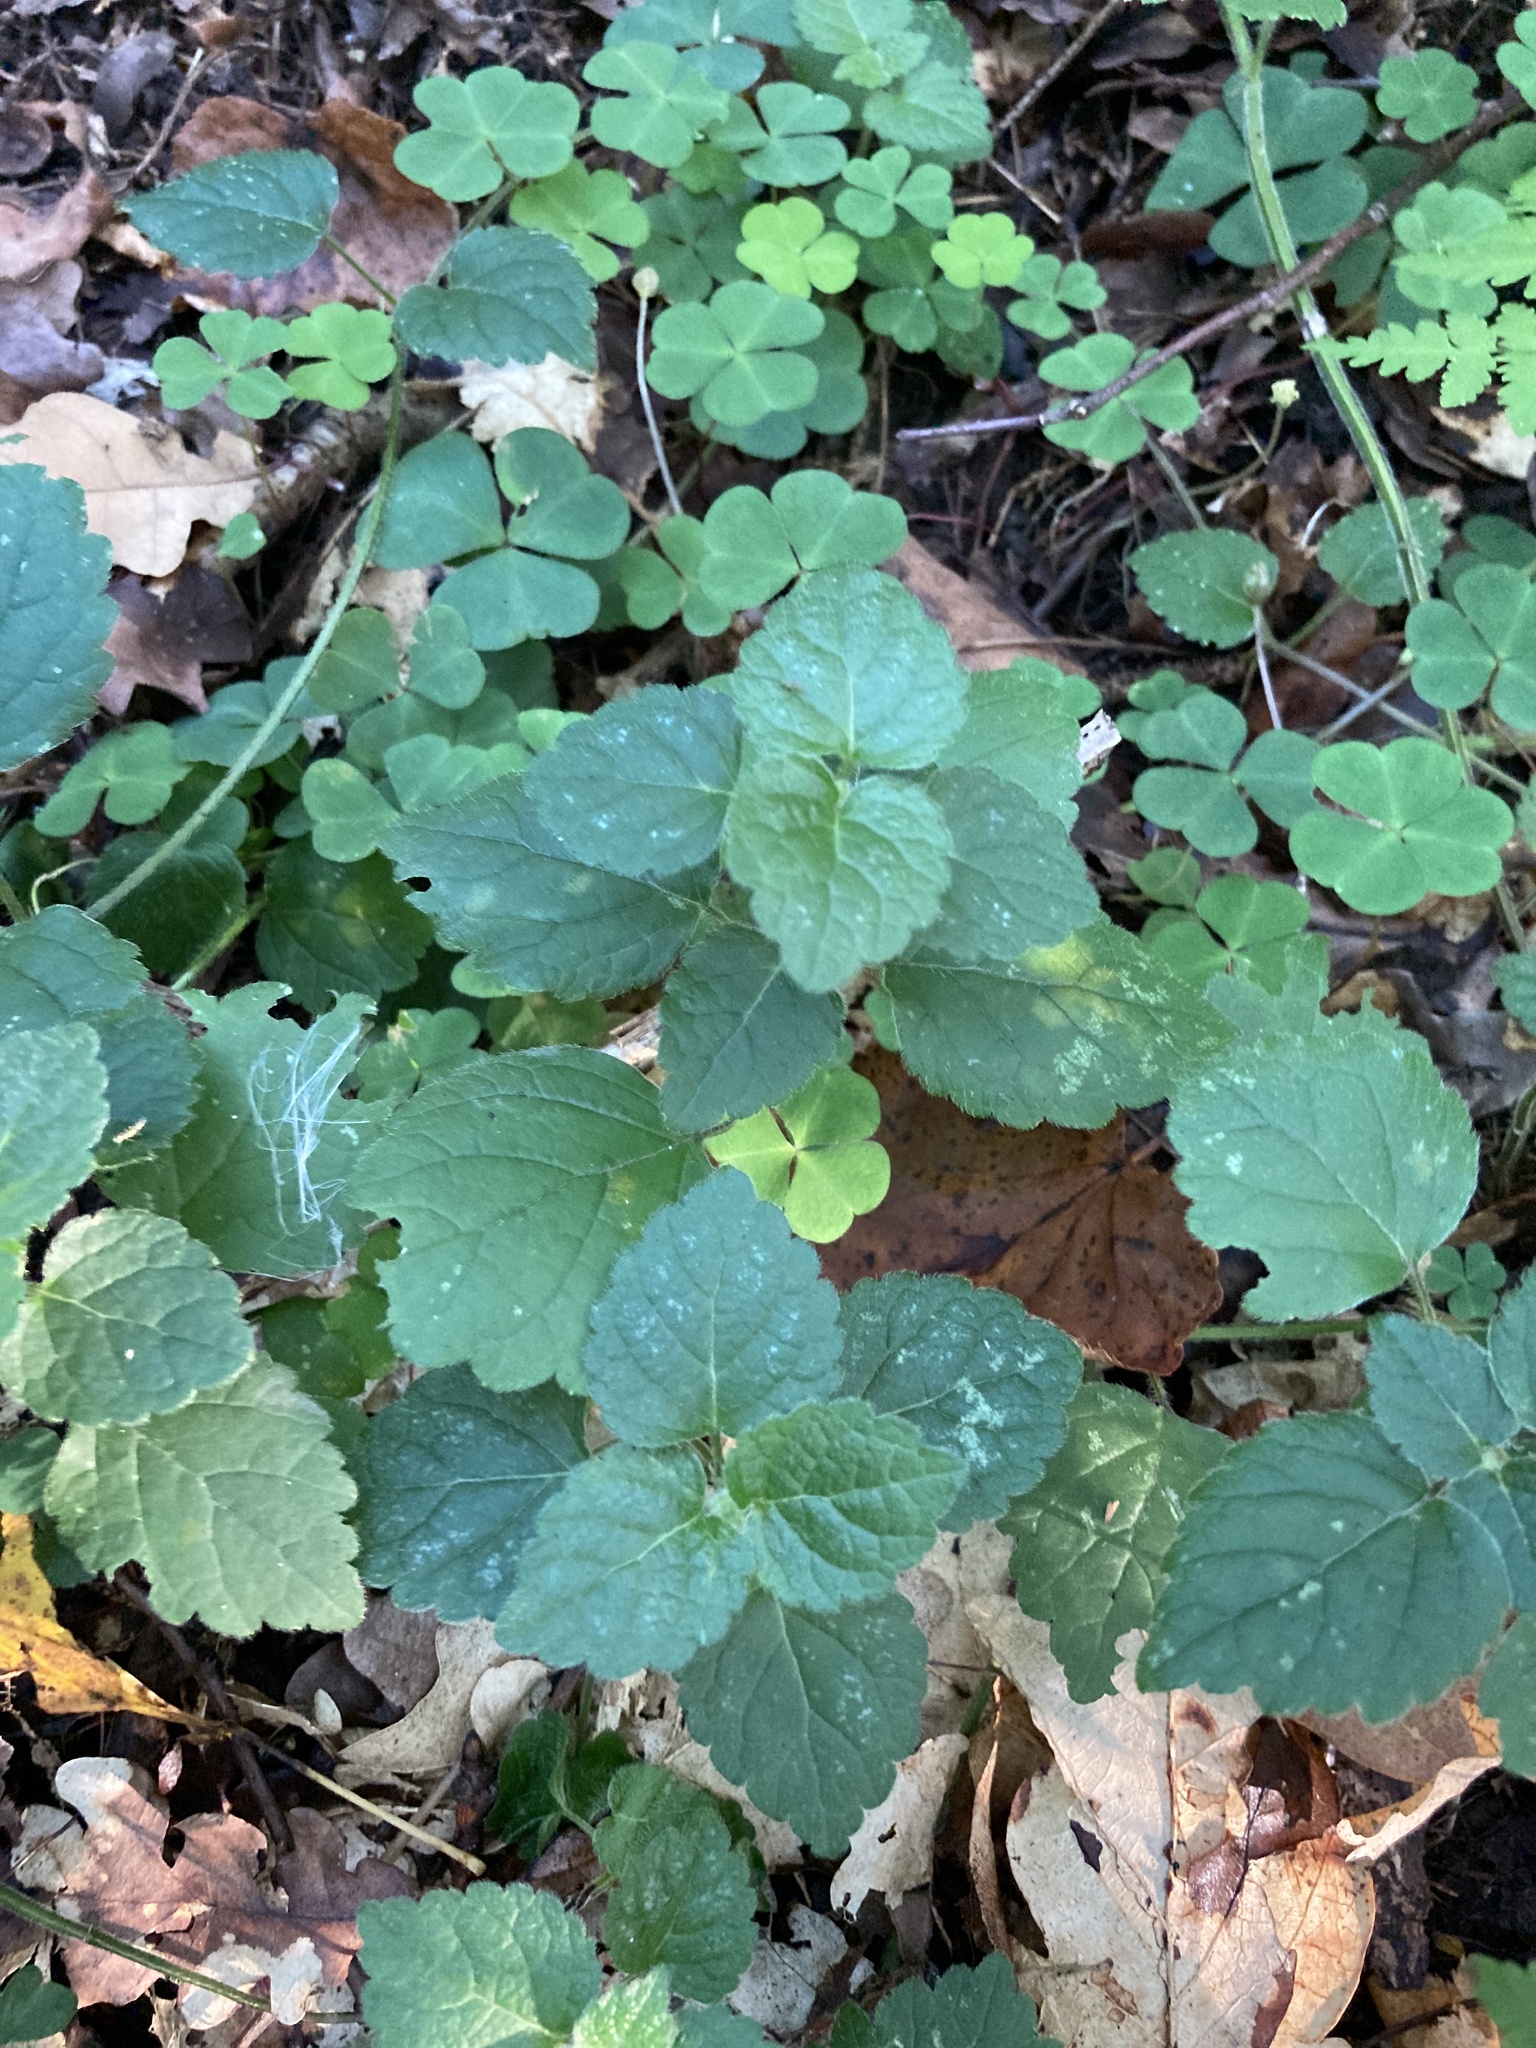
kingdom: Plantae
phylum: Tracheophyta
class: Magnoliopsida
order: Lamiales
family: Lamiaceae
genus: Lamium
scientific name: Lamium galeobdolon
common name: Yellow archangel
